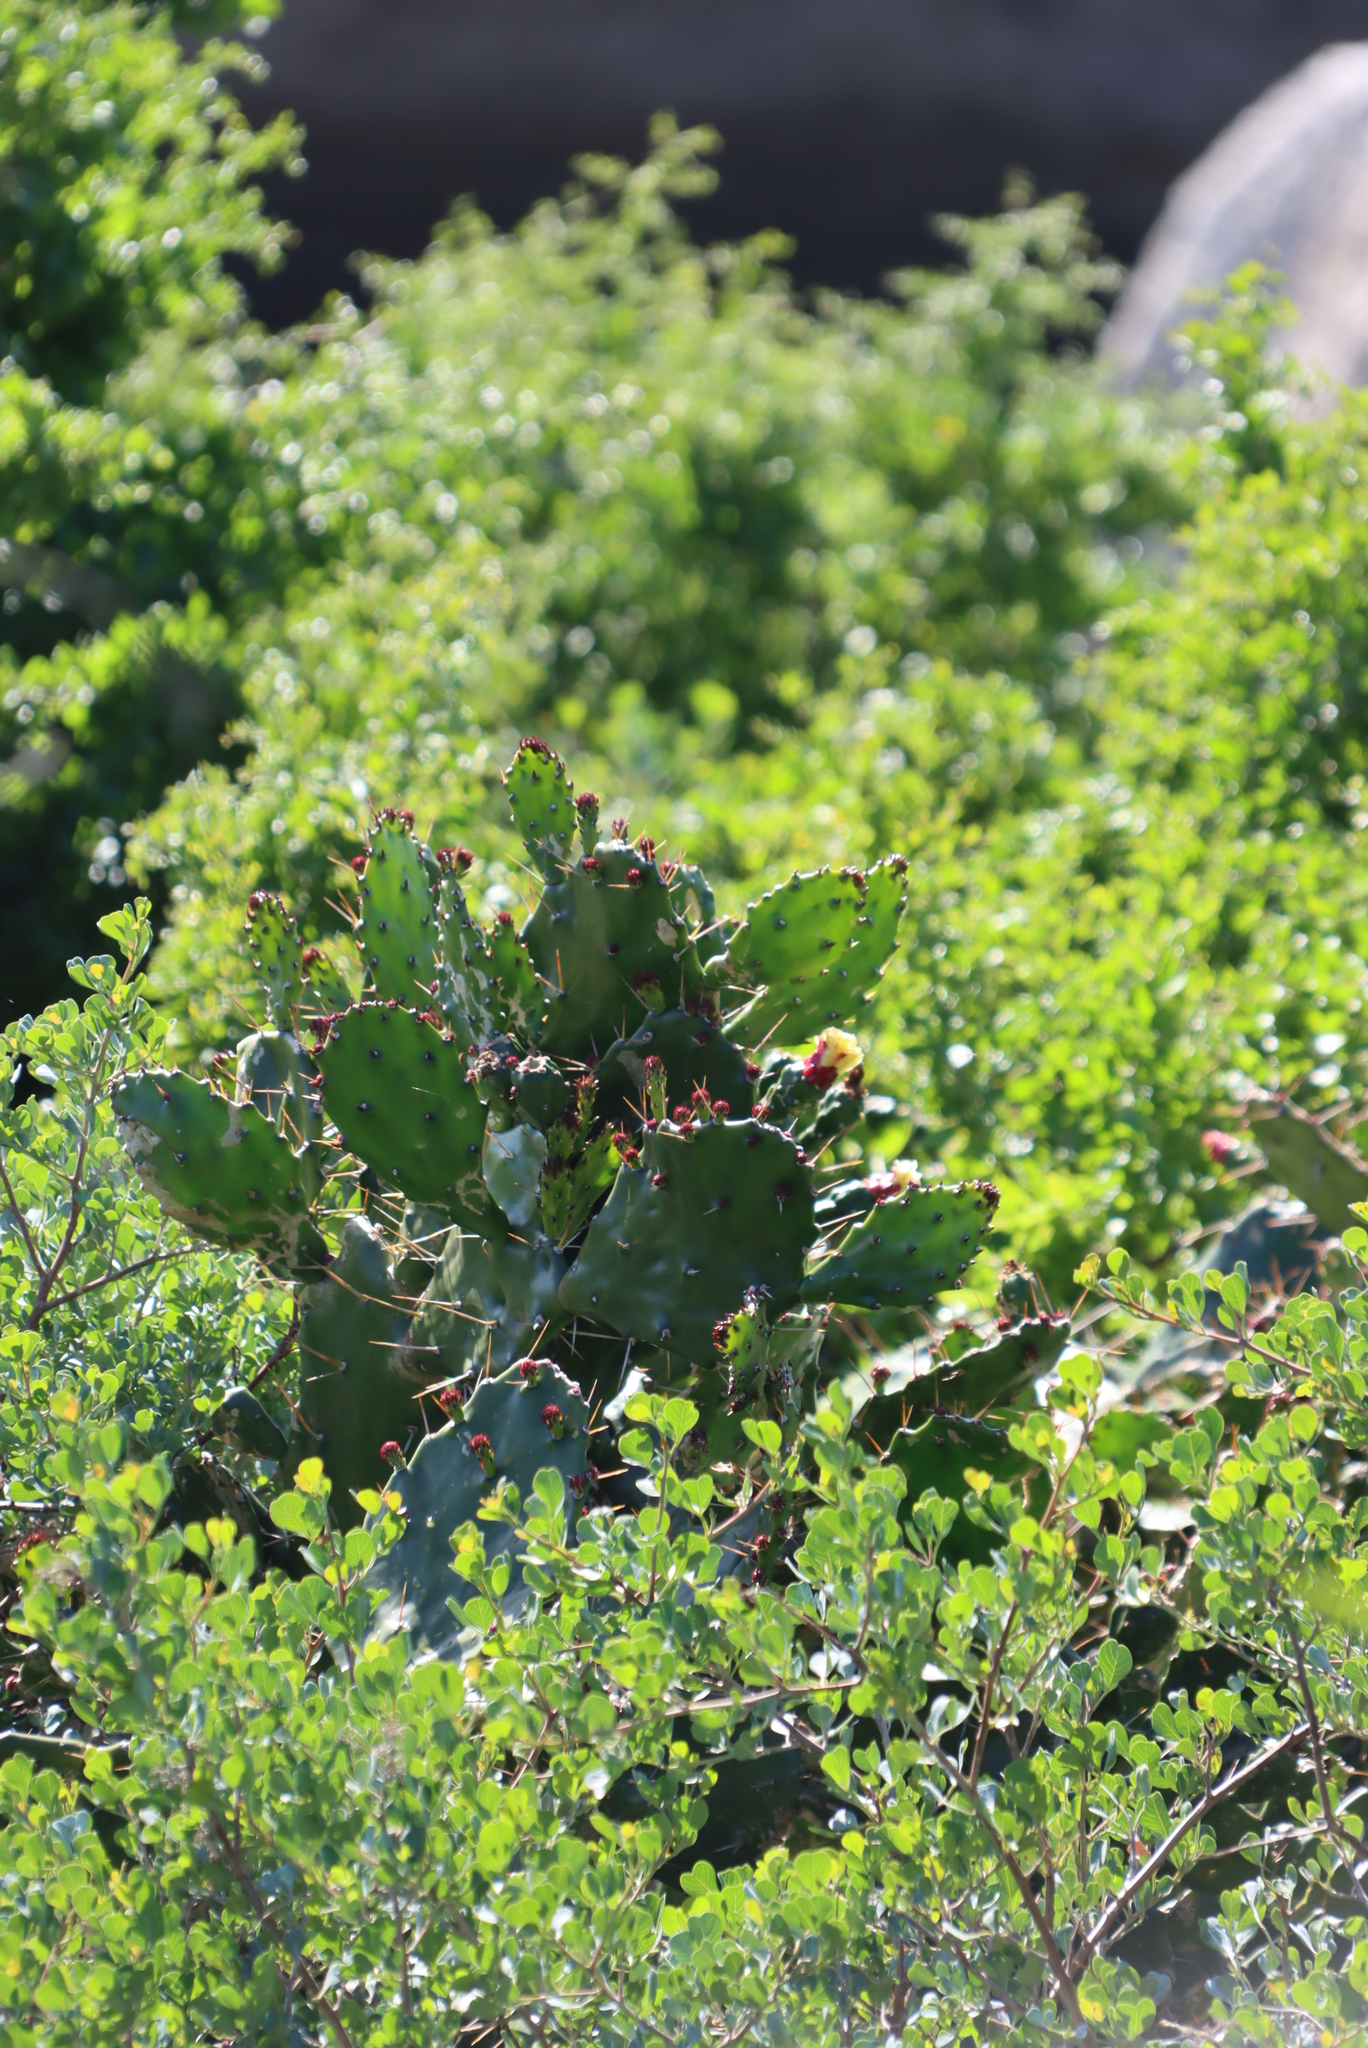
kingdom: Plantae
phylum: Tracheophyta
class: Magnoliopsida
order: Caryophyllales
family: Cactaceae
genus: Opuntia
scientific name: Opuntia monacantha
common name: Common pricklypear
